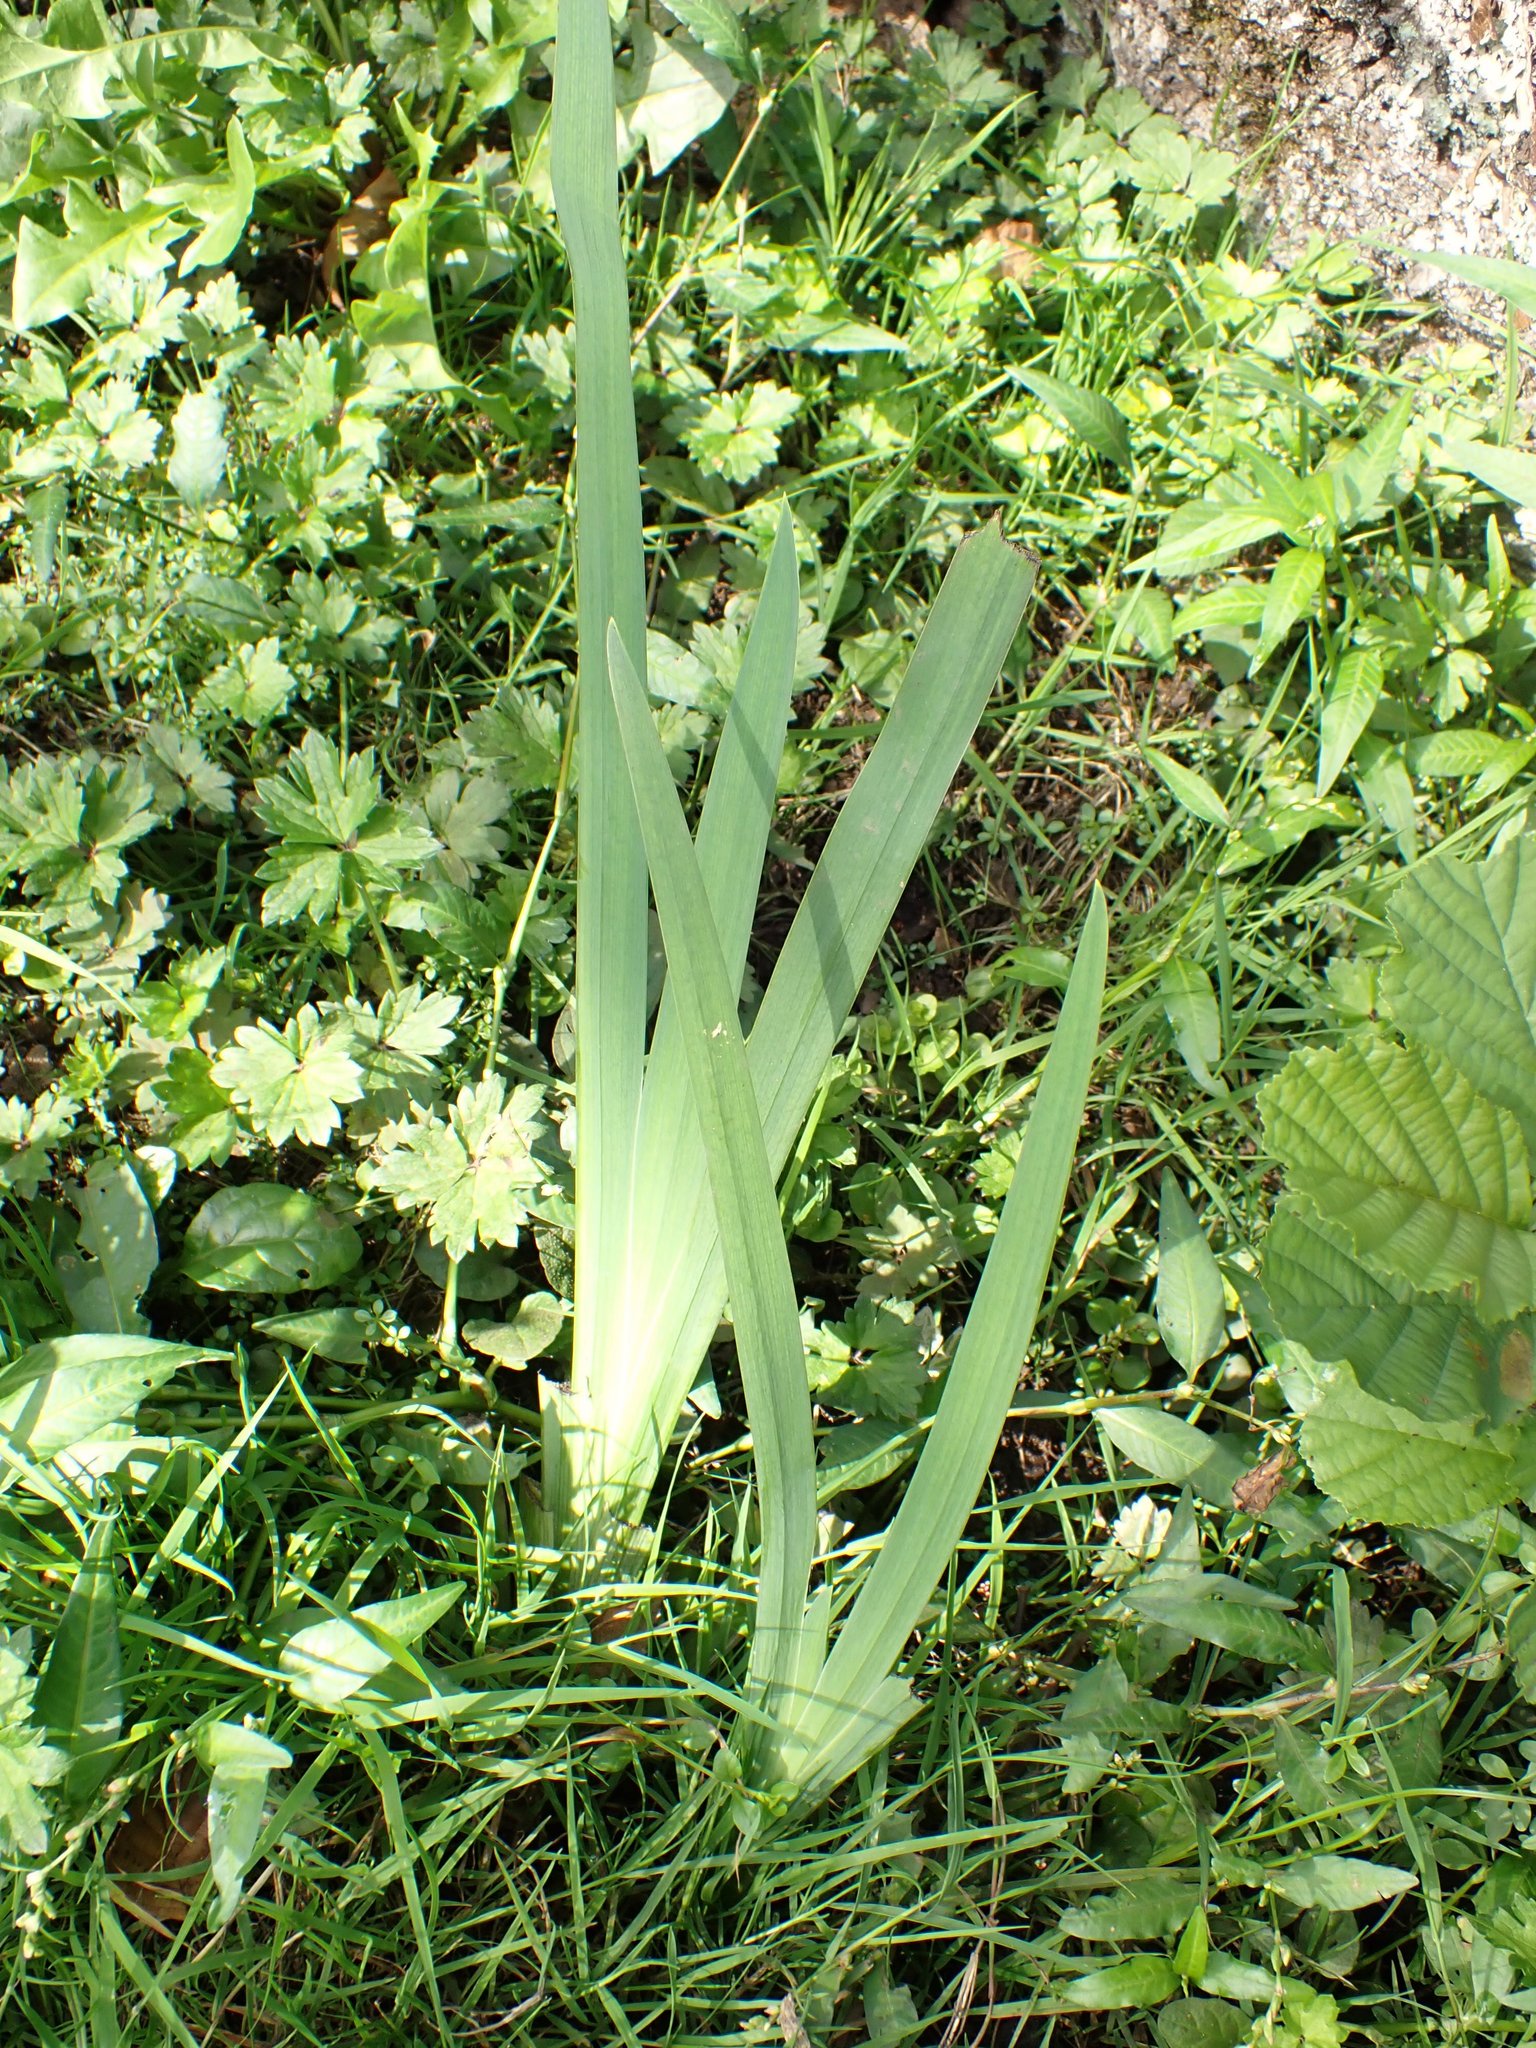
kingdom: Plantae
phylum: Tracheophyta
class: Liliopsida
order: Asparagales
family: Iridaceae
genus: Iris
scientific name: Iris pseudacorus
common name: Yellow flag
